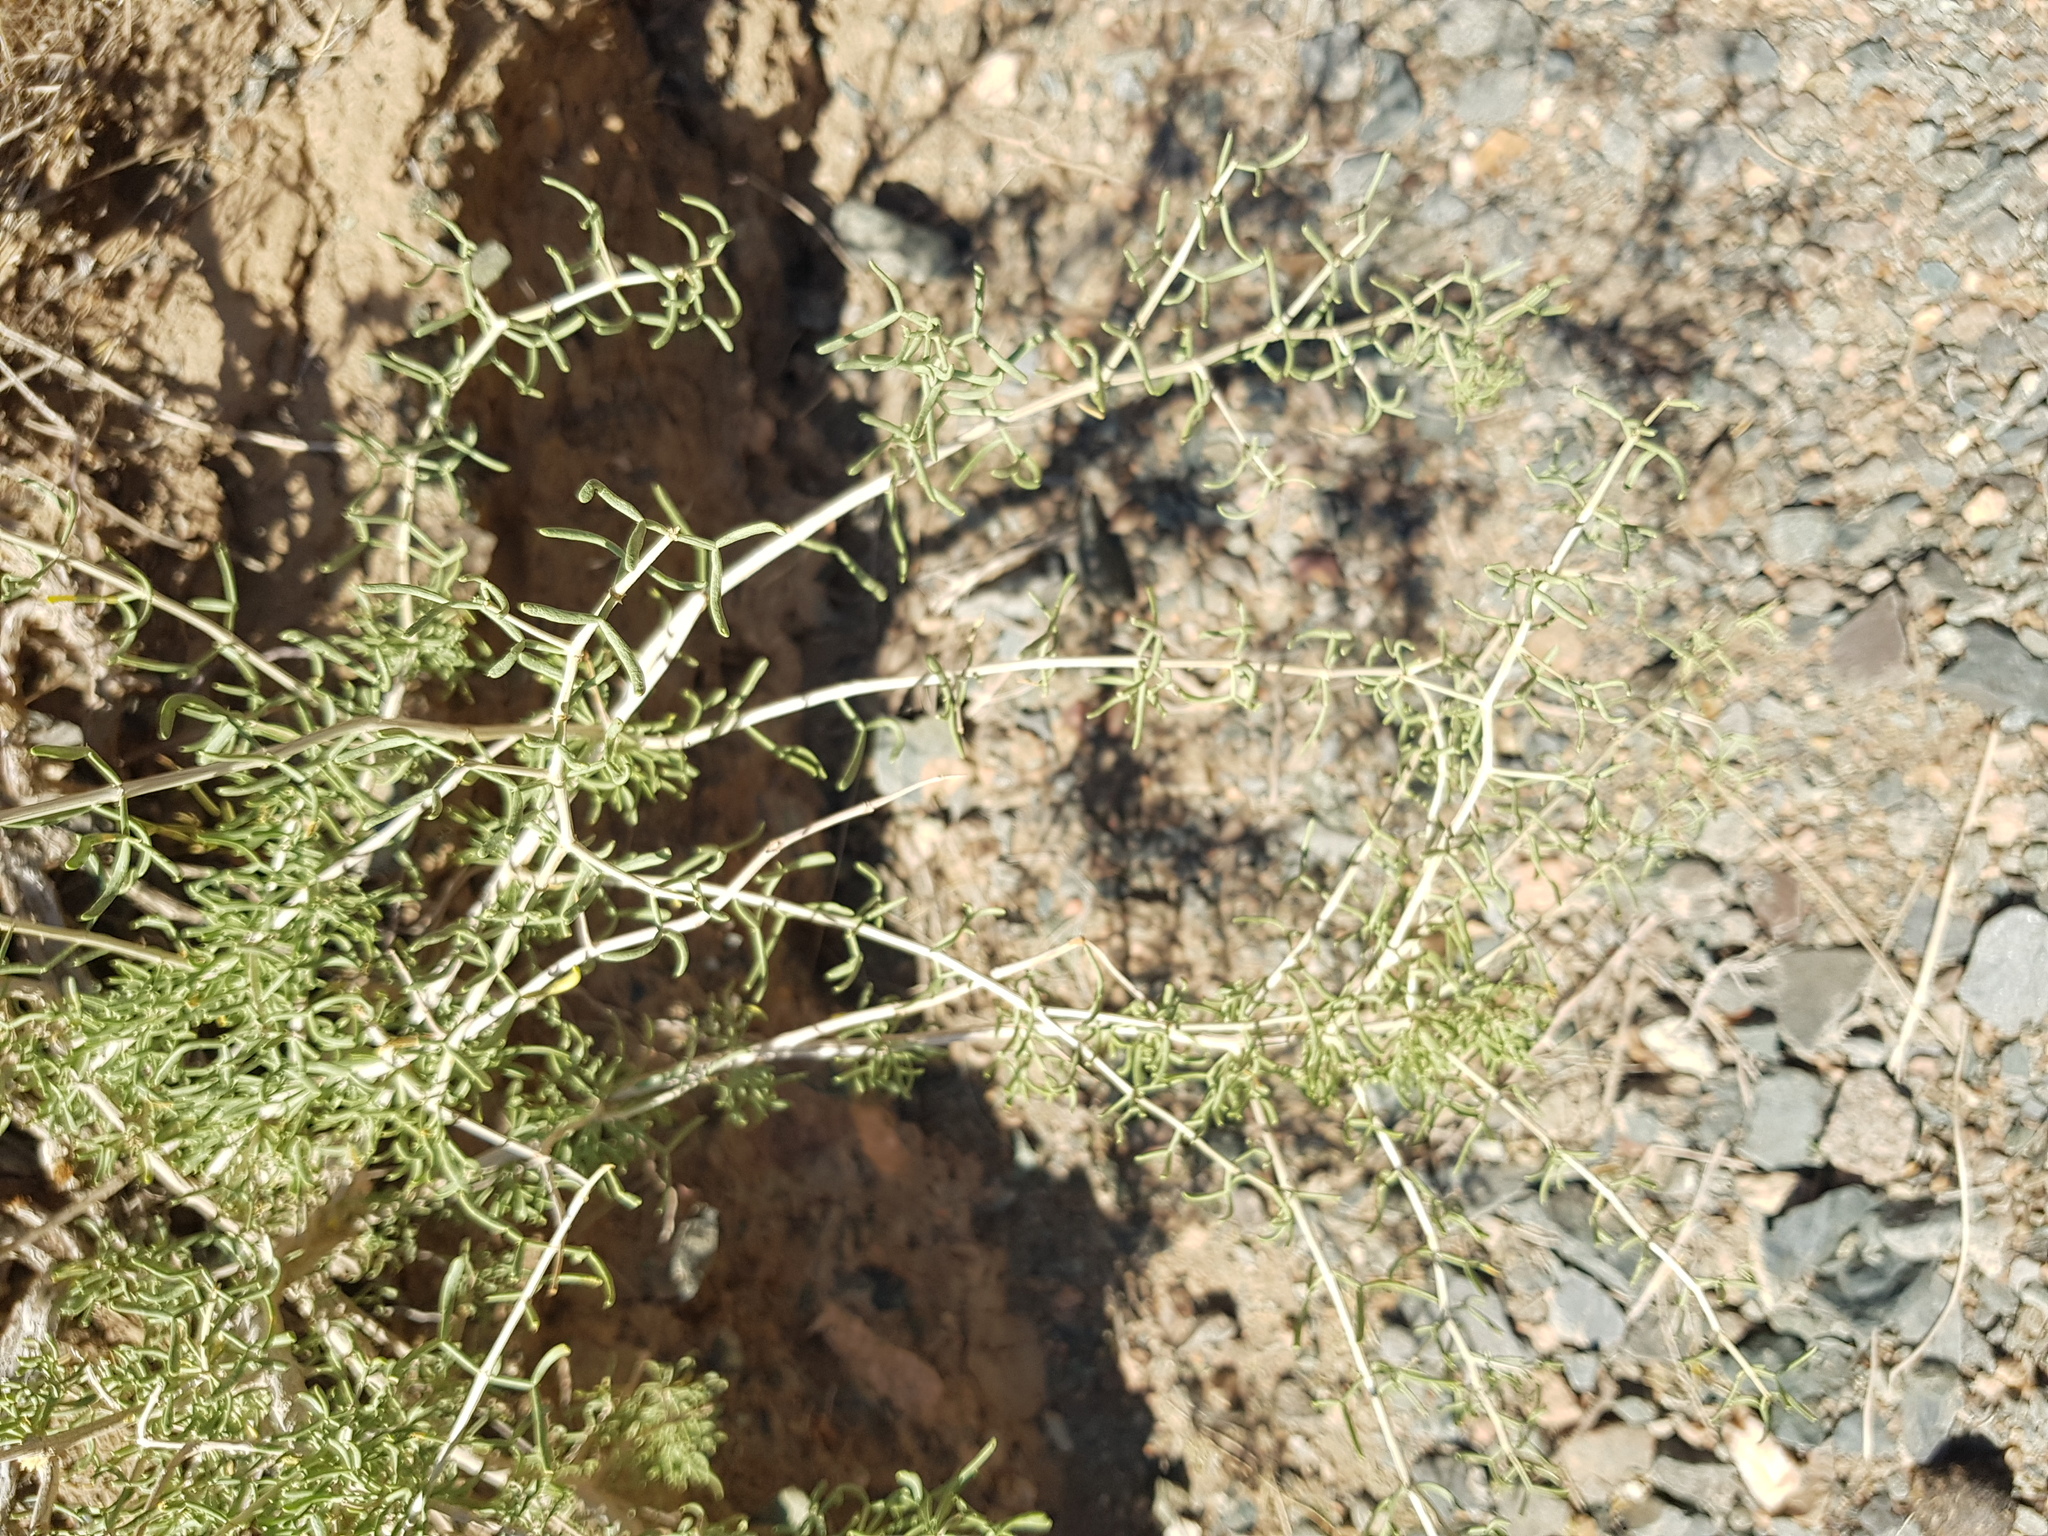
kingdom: Plantae
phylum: Tracheophyta
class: Magnoliopsida
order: Zygophyllales
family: Zygophyllaceae
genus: Zygophyllum
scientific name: Zygophyllum xanthoxylum
